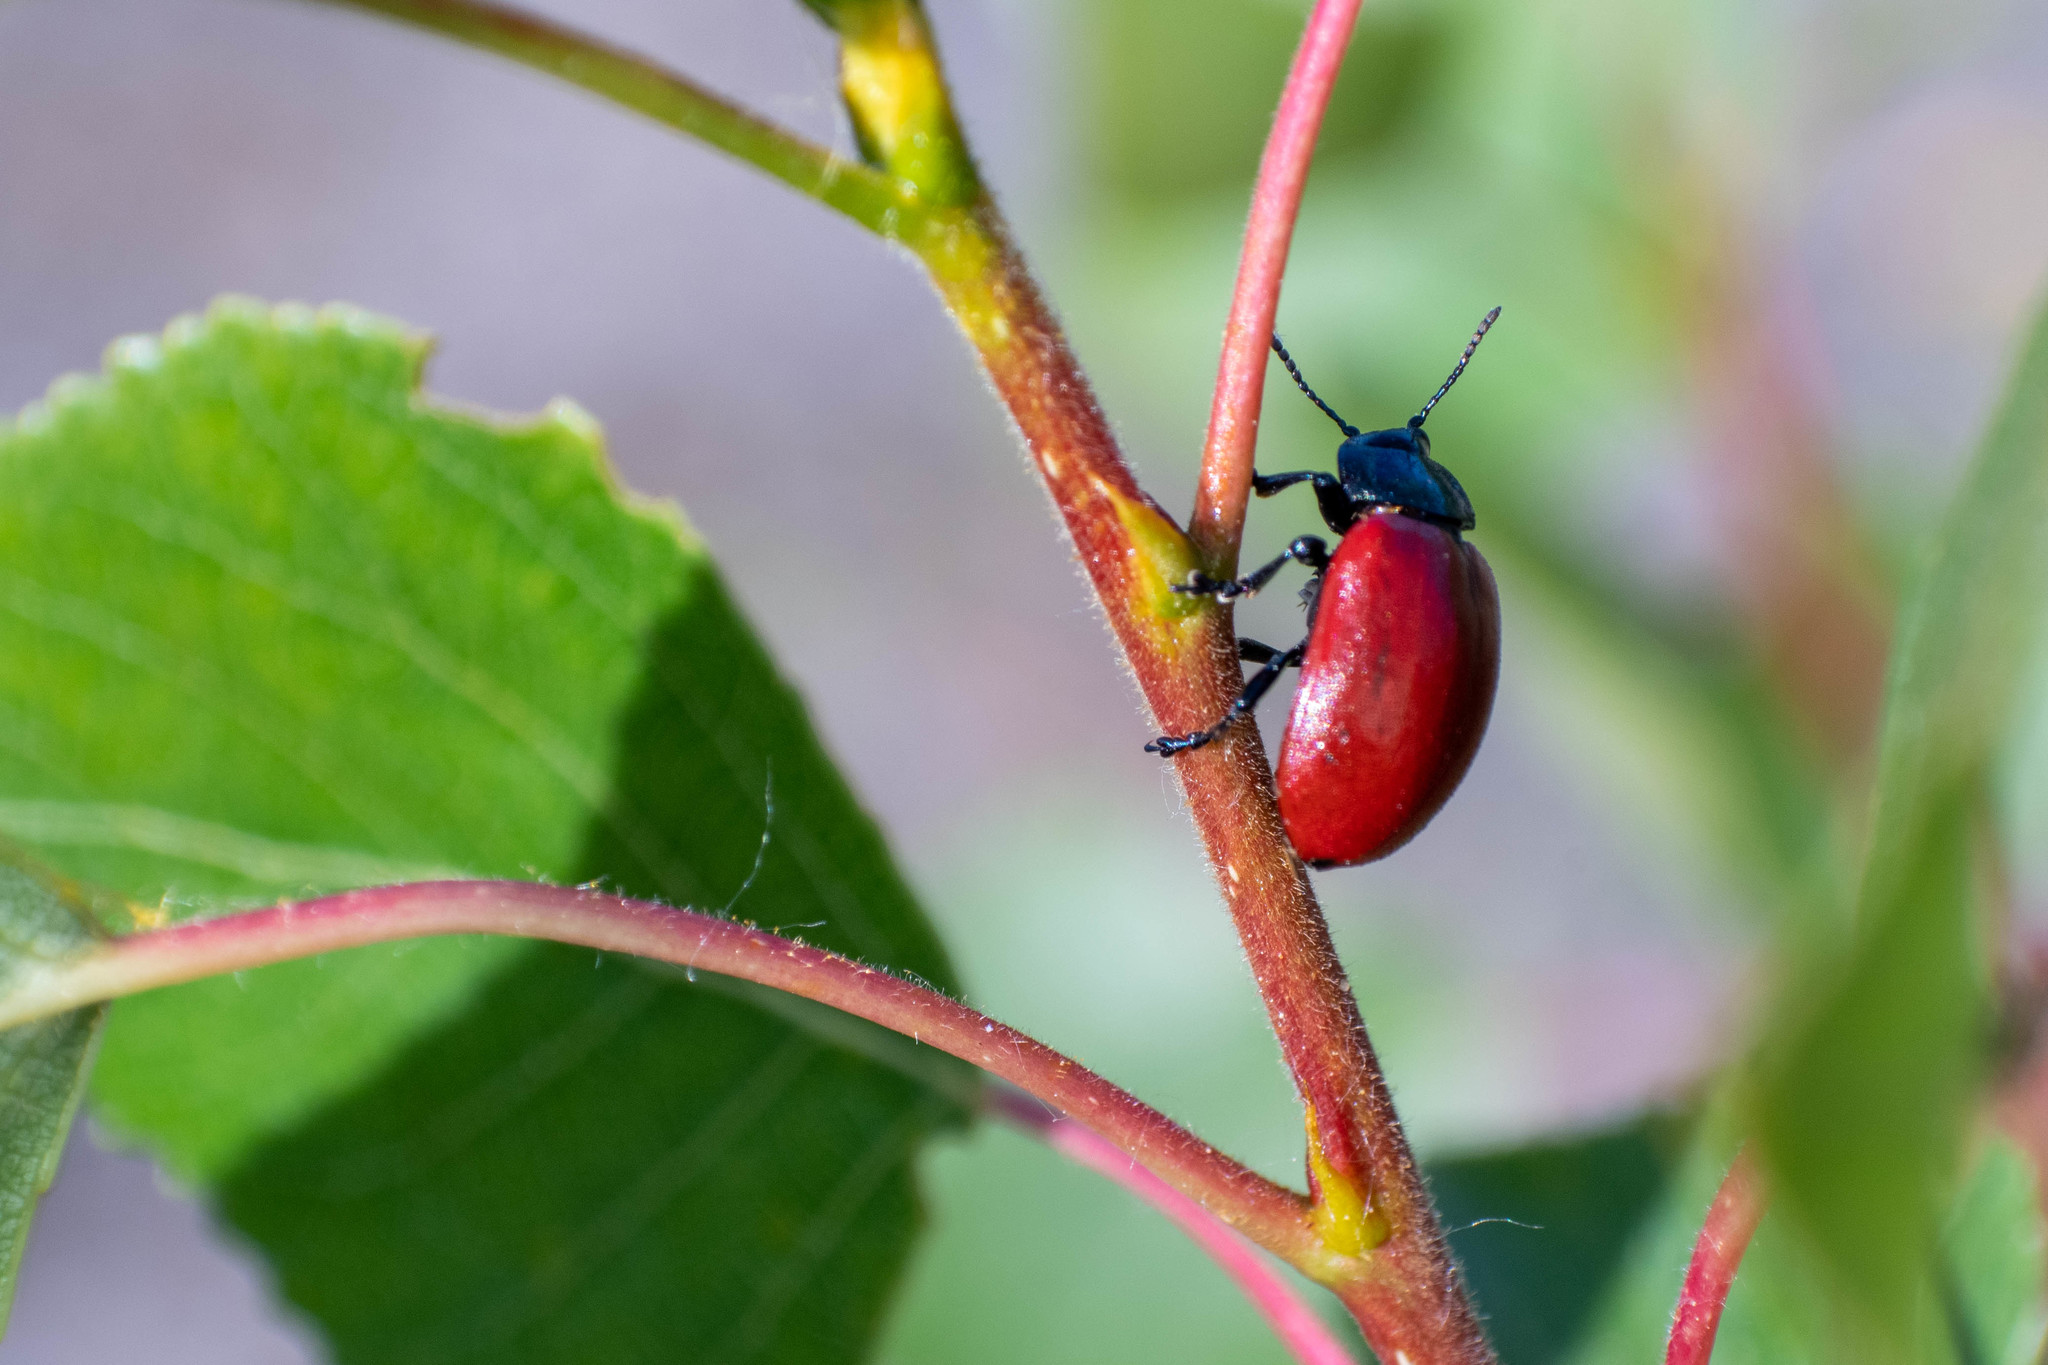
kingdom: Animalia
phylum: Arthropoda
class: Insecta
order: Coleoptera
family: Chrysomelidae
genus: Chrysomela
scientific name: Chrysomela populi
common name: Red poplar leaf beetle
